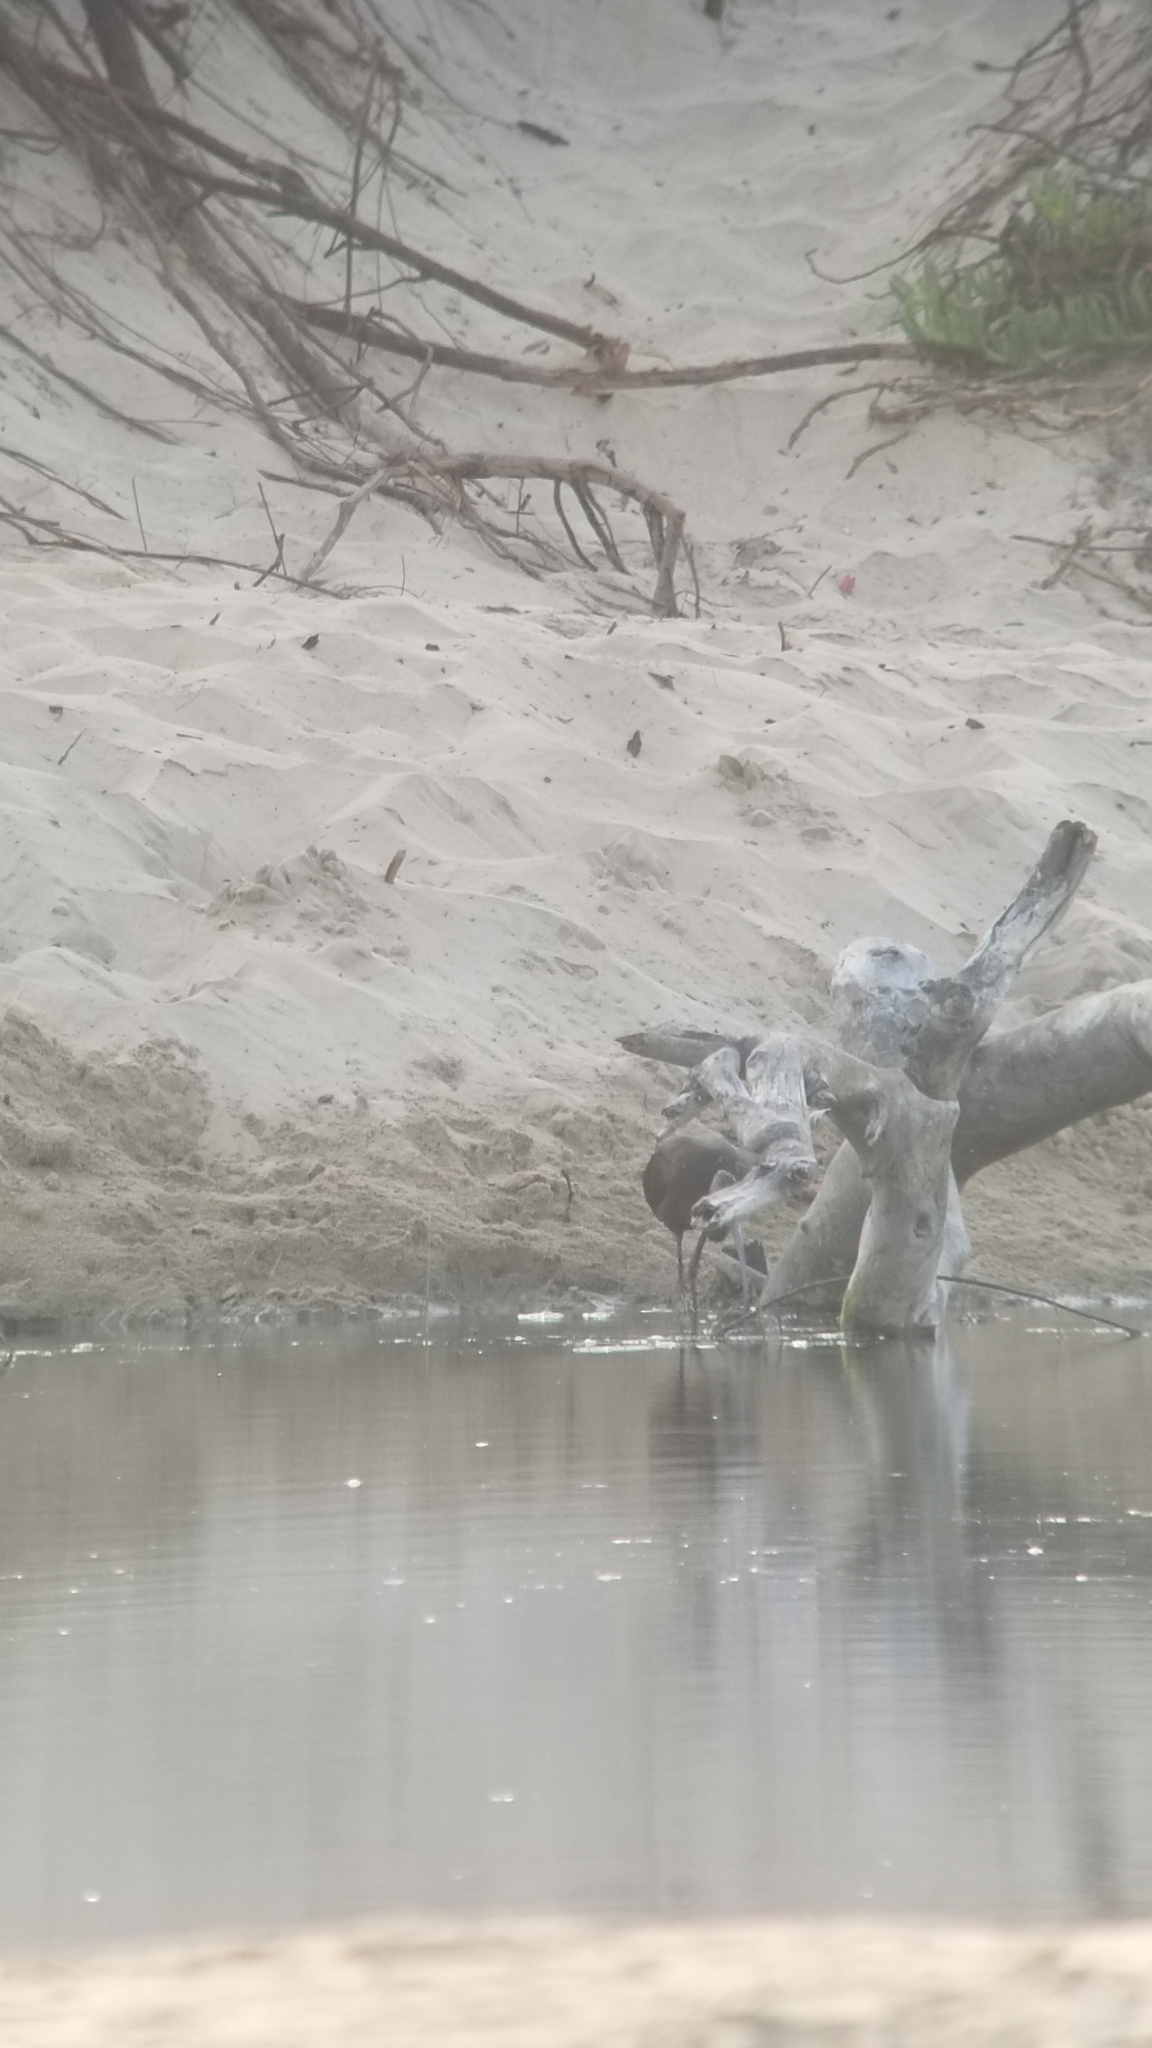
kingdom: Animalia
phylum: Chordata
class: Aves
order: Pelecaniformes
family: Threskiornithidae
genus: Plegadis
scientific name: Plegadis chihi
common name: White-faced ibis
